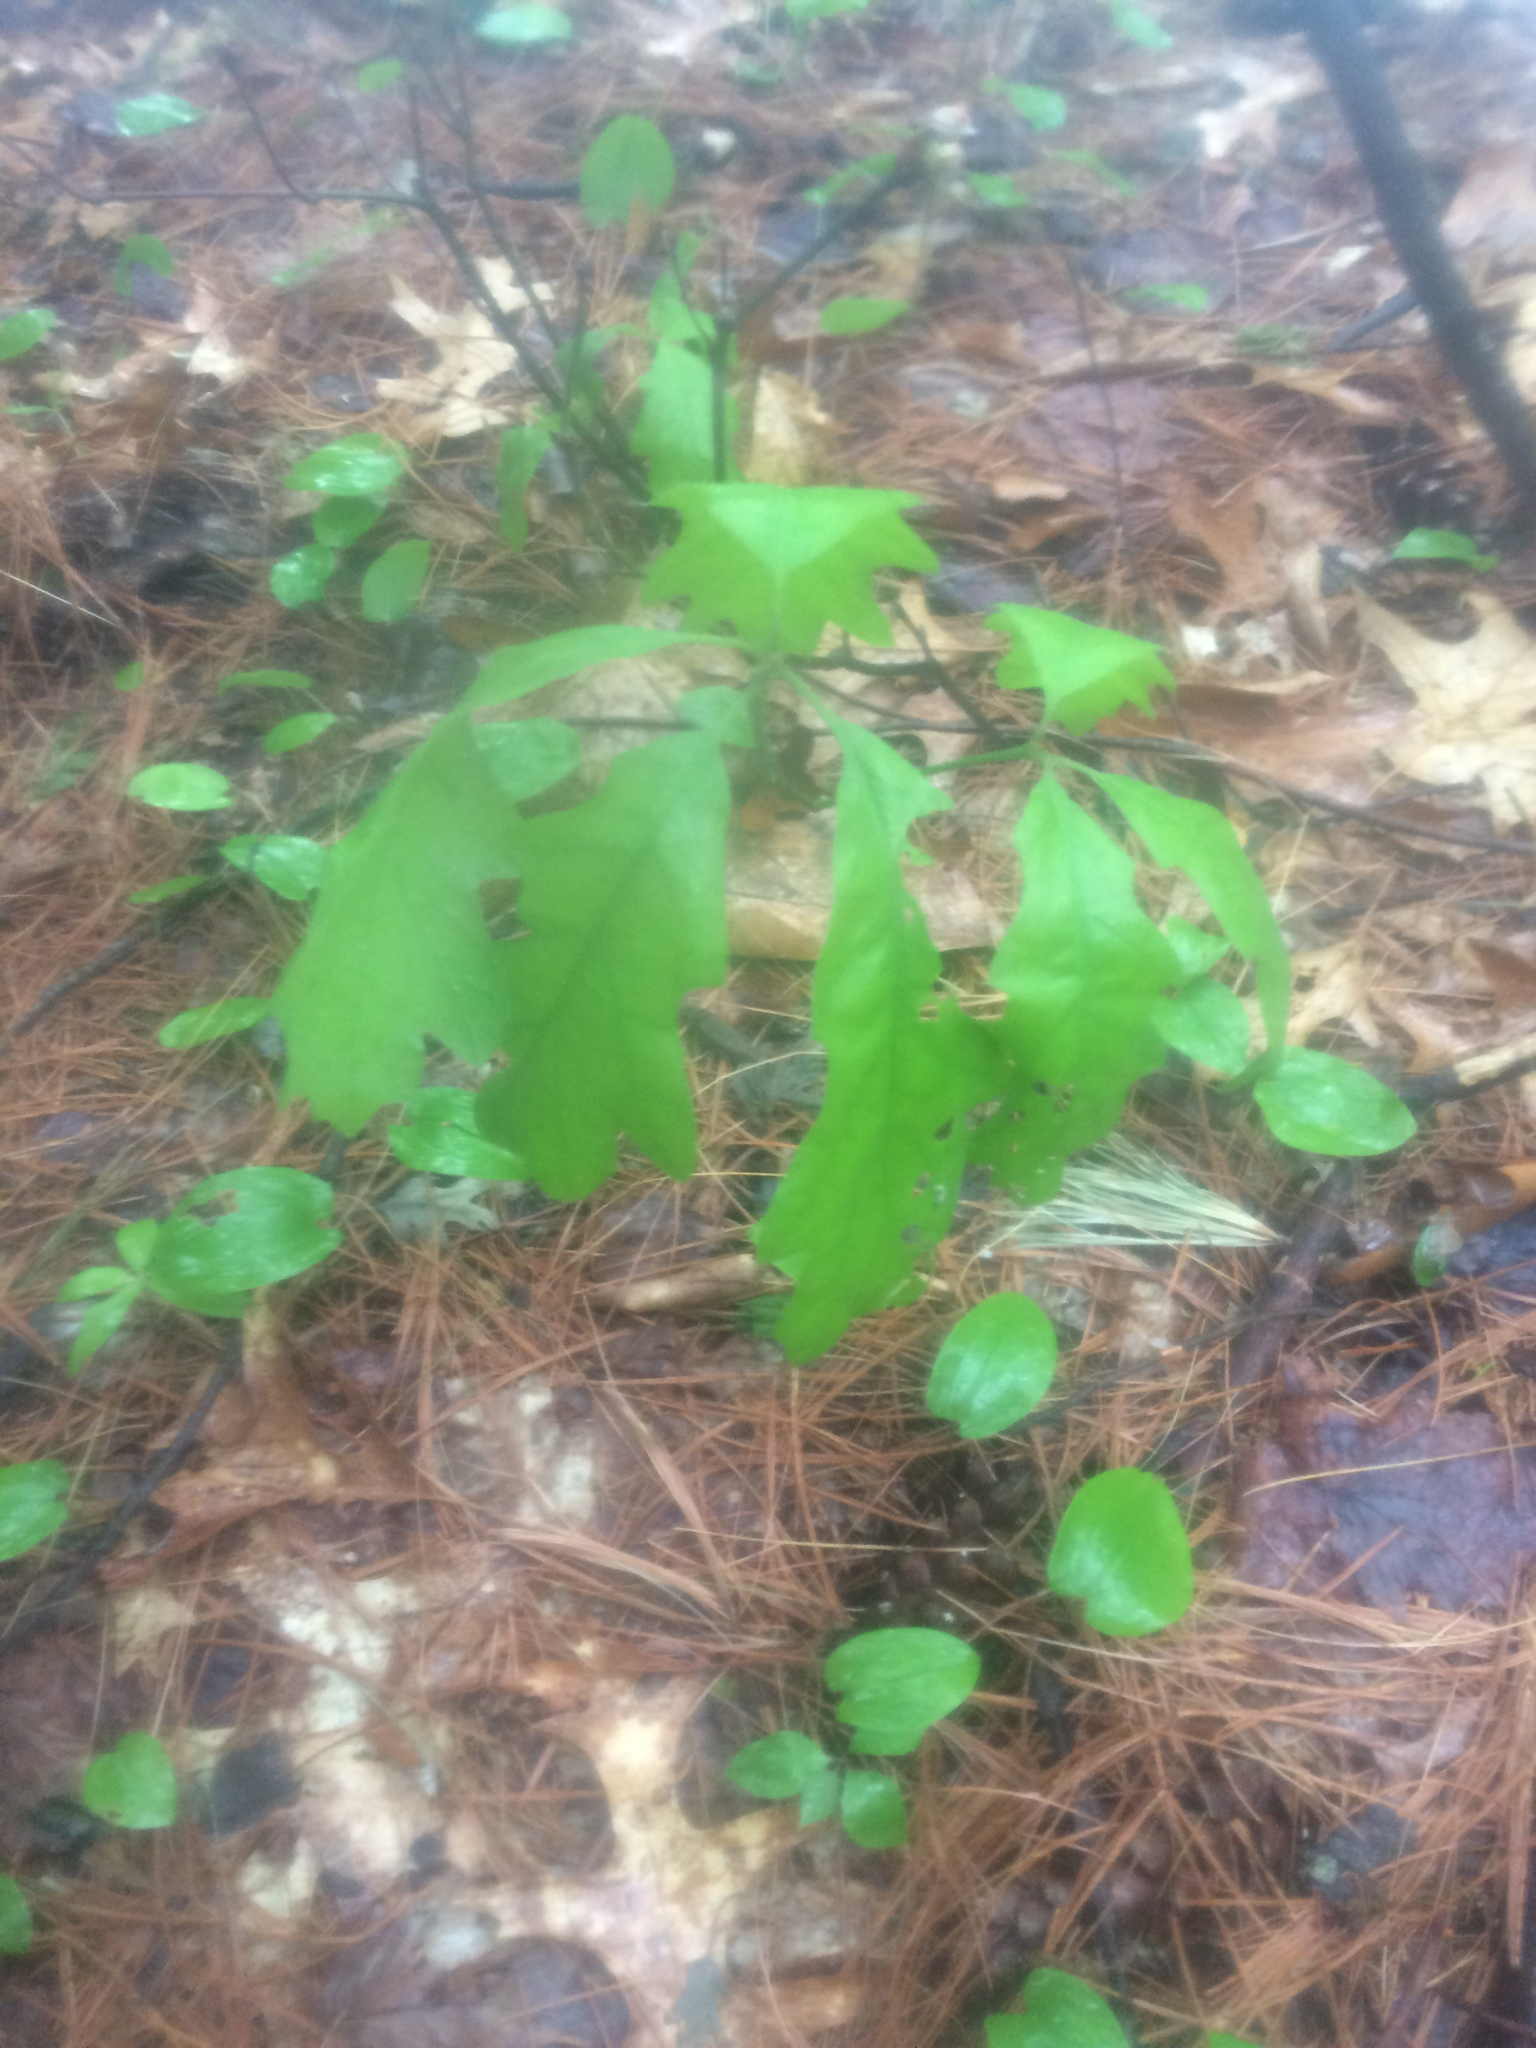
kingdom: Plantae
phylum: Tracheophyta
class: Magnoliopsida
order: Fagales
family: Fagaceae
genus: Quercus
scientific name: Quercus alba
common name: White oak
